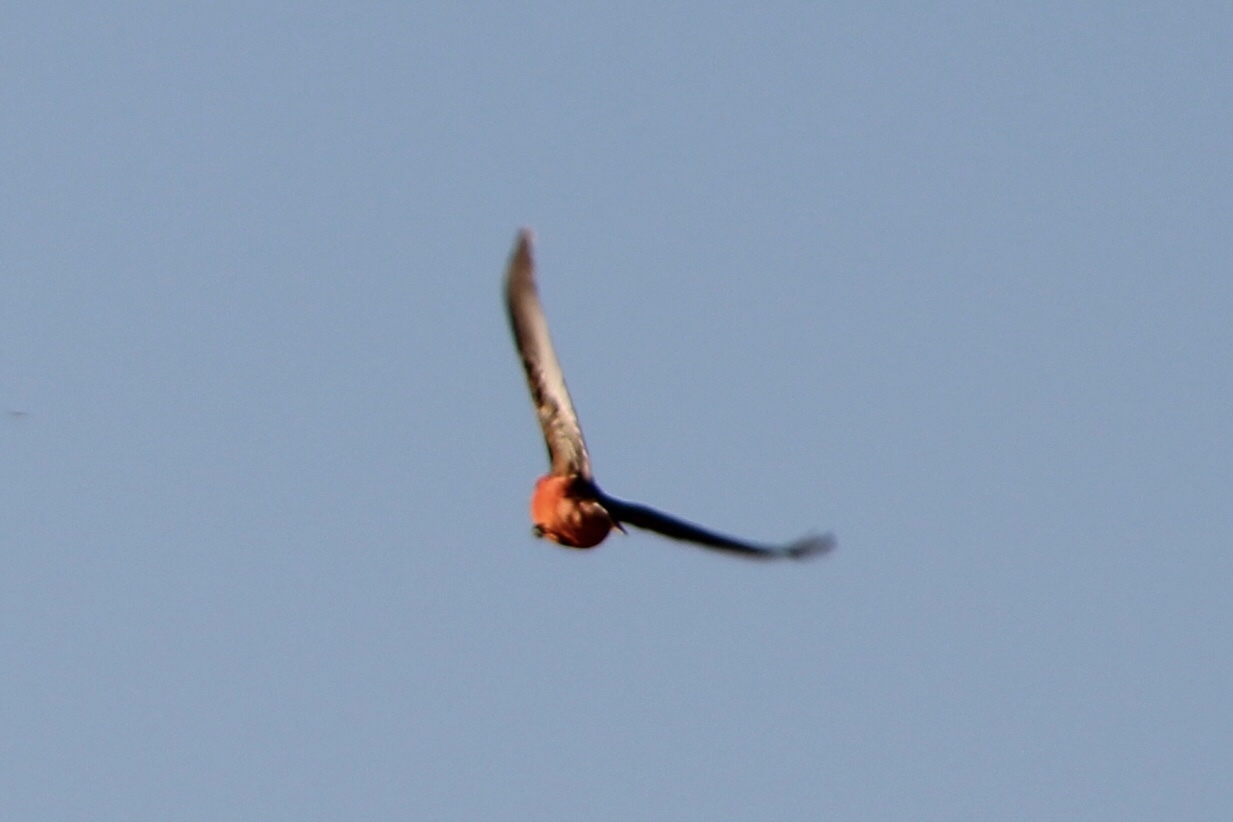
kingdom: Animalia
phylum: Chordata
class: Aves
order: Passeriformes
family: Tyrannidae
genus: Pyrocephalus
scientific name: Pyrocephalus rubinus
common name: Vermilion flycatcher
